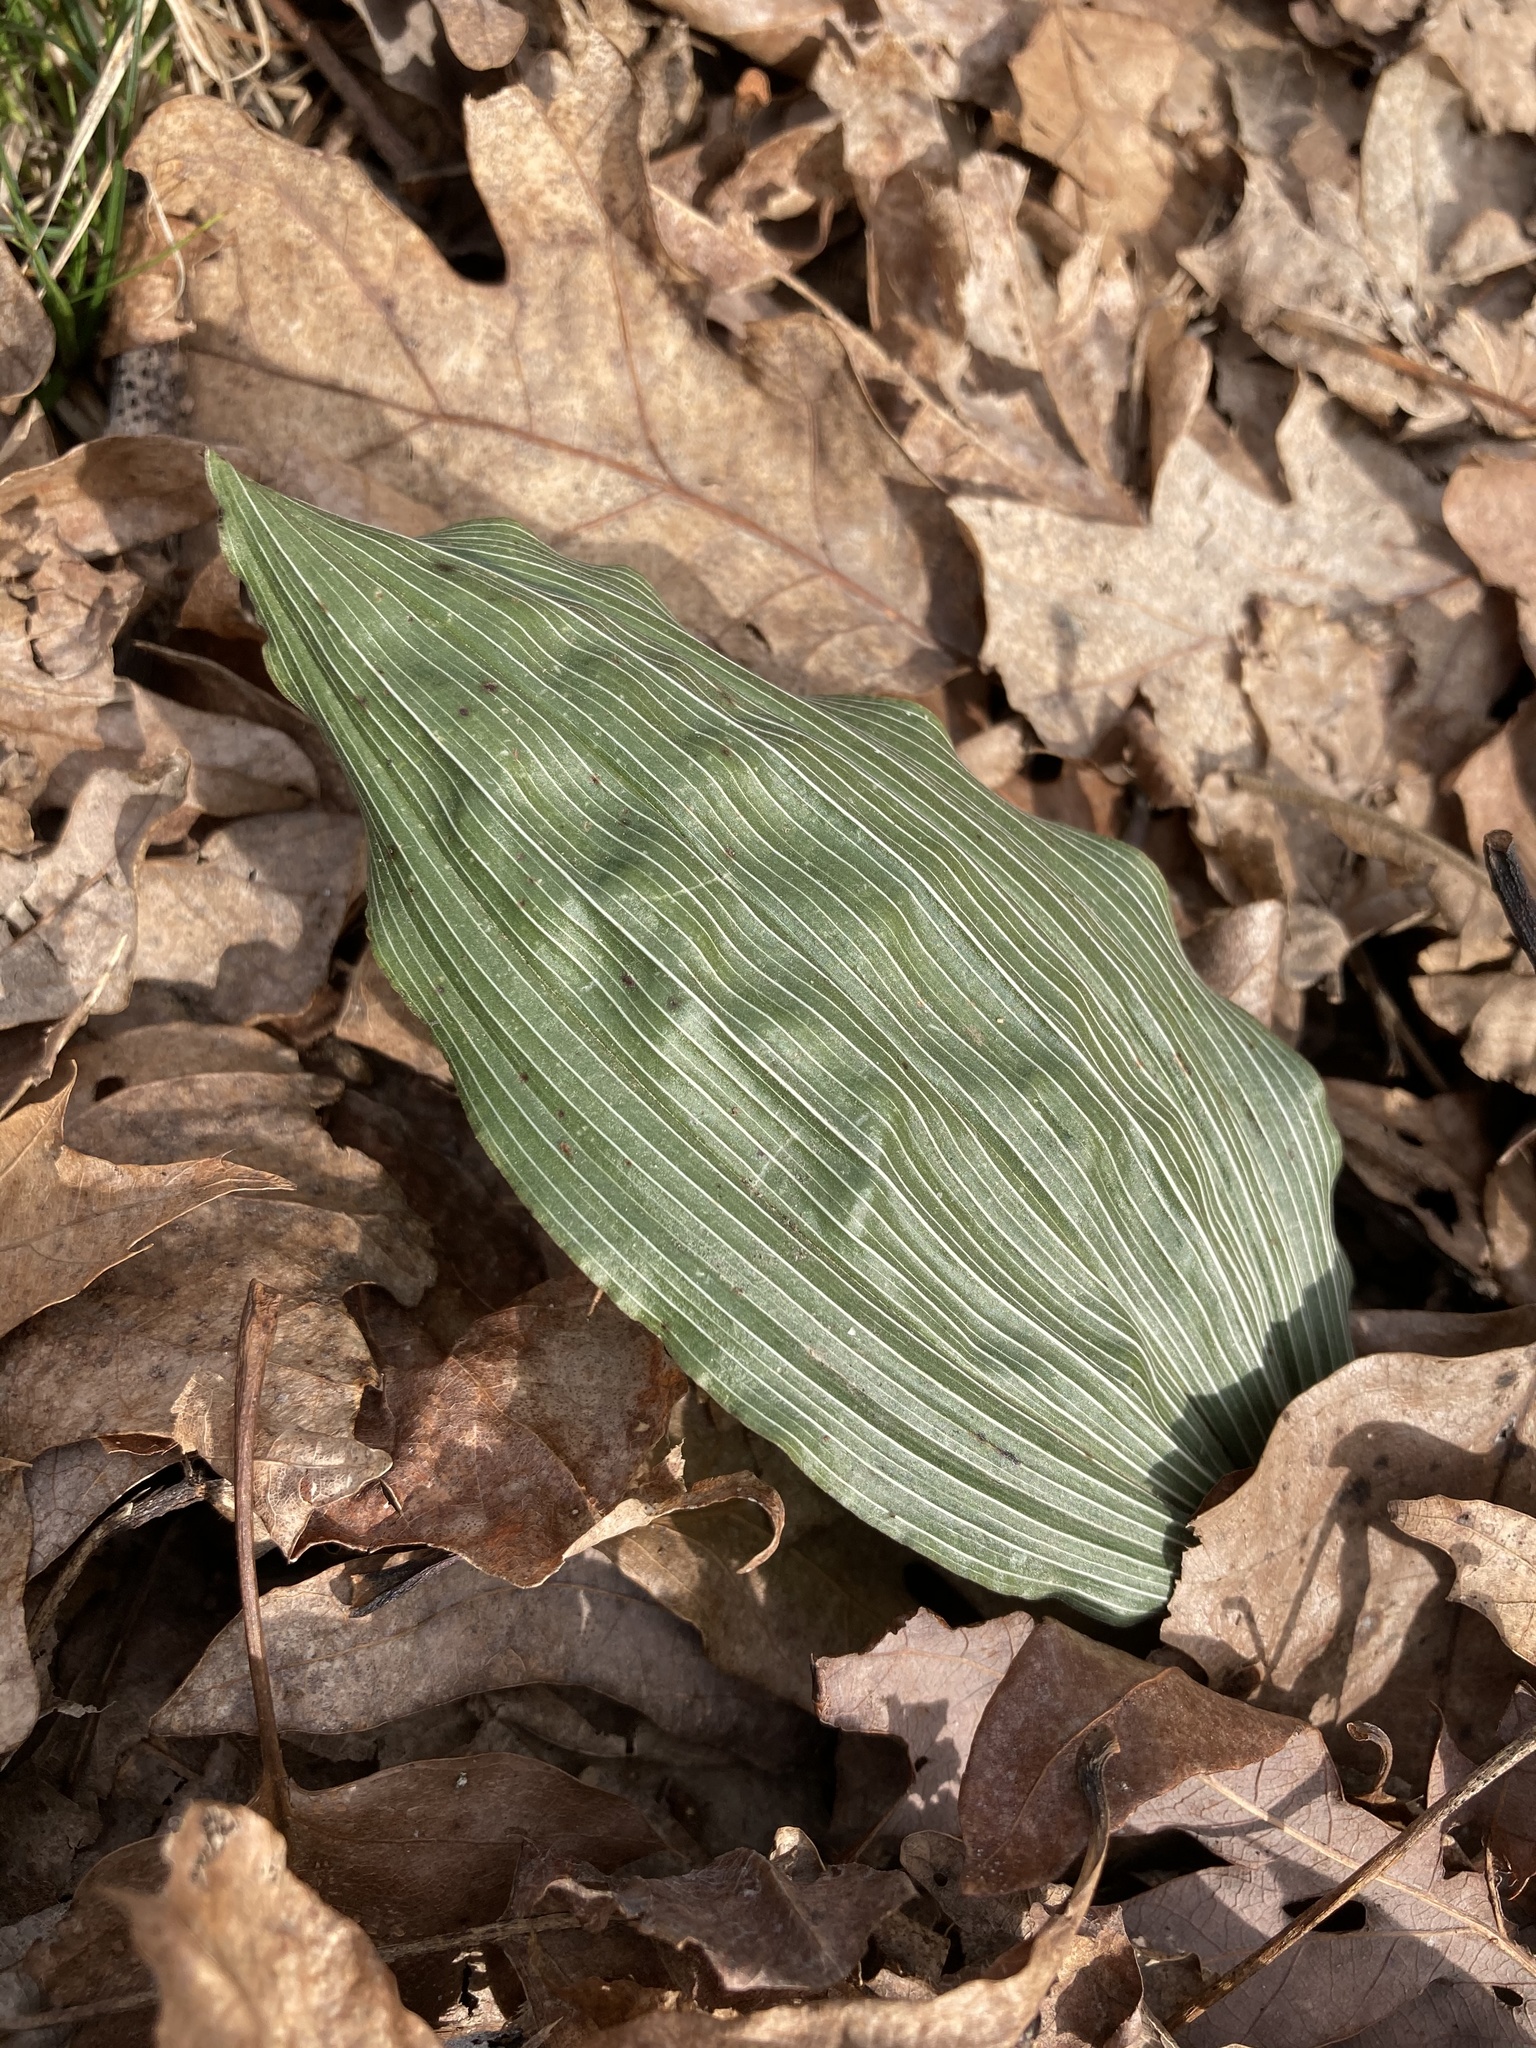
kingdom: Plantae
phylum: Tracheophyta
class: Liliopsida
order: Asparagales
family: Orchidaceae
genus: Aplectrum
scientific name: Aplectrum hyemale
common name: Adam-and-eve
